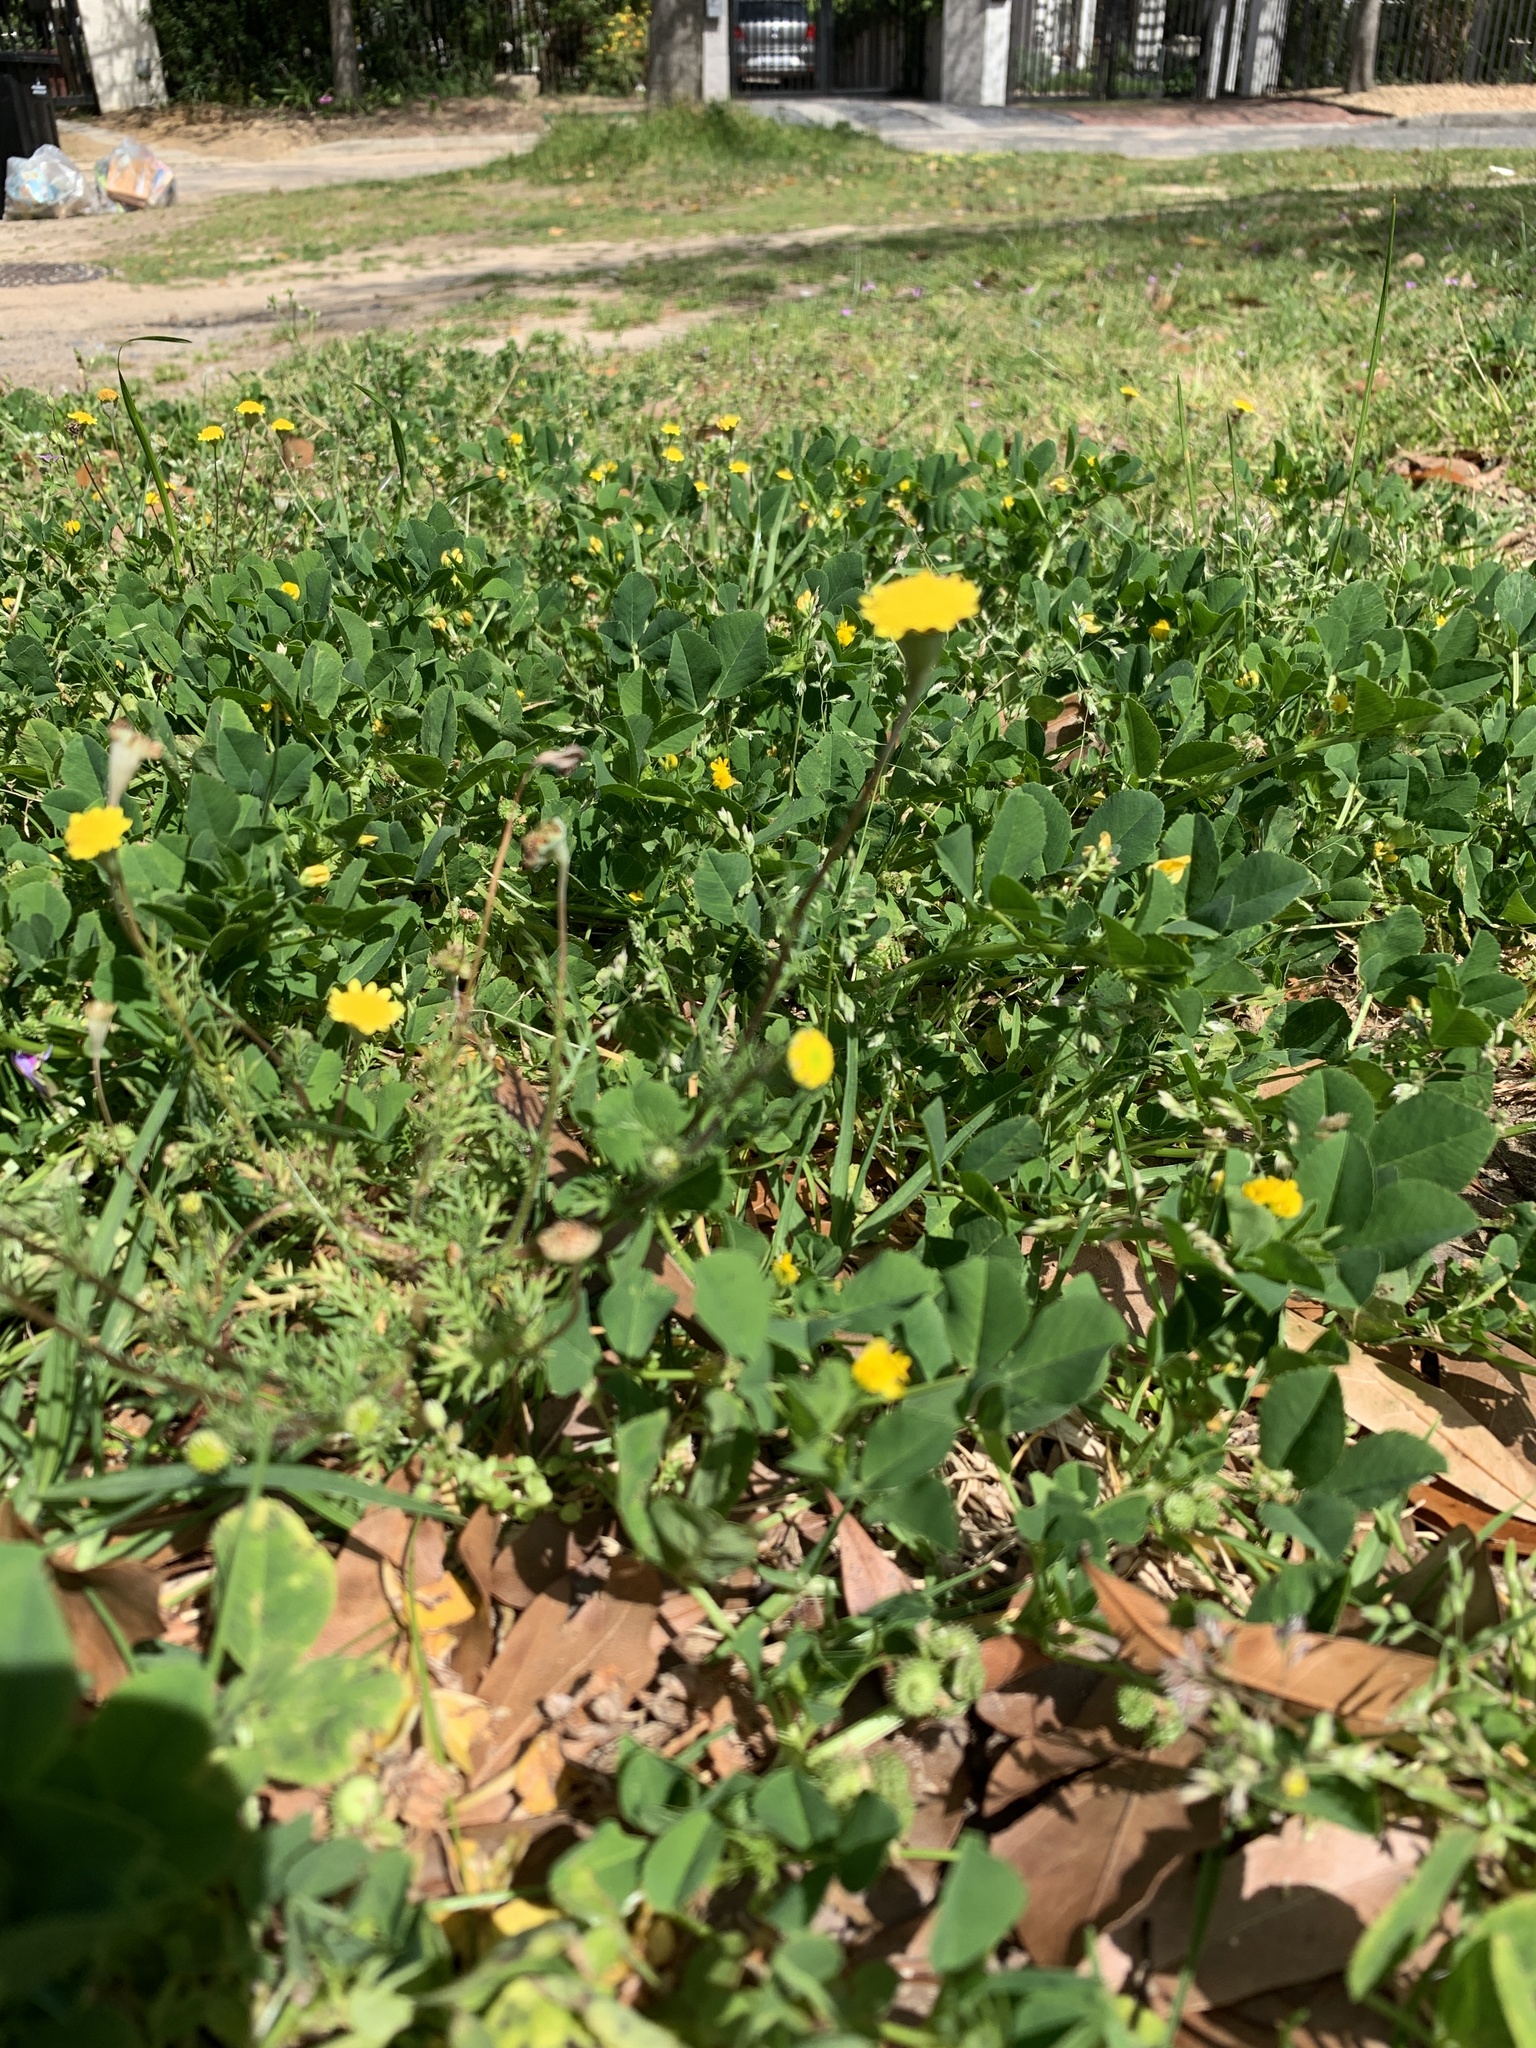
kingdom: Plantae
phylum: Tracheophyta
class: Magnoliopsida
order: Asterales
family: Asteraceae
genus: Cotula
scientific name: Cotula pruinosa
